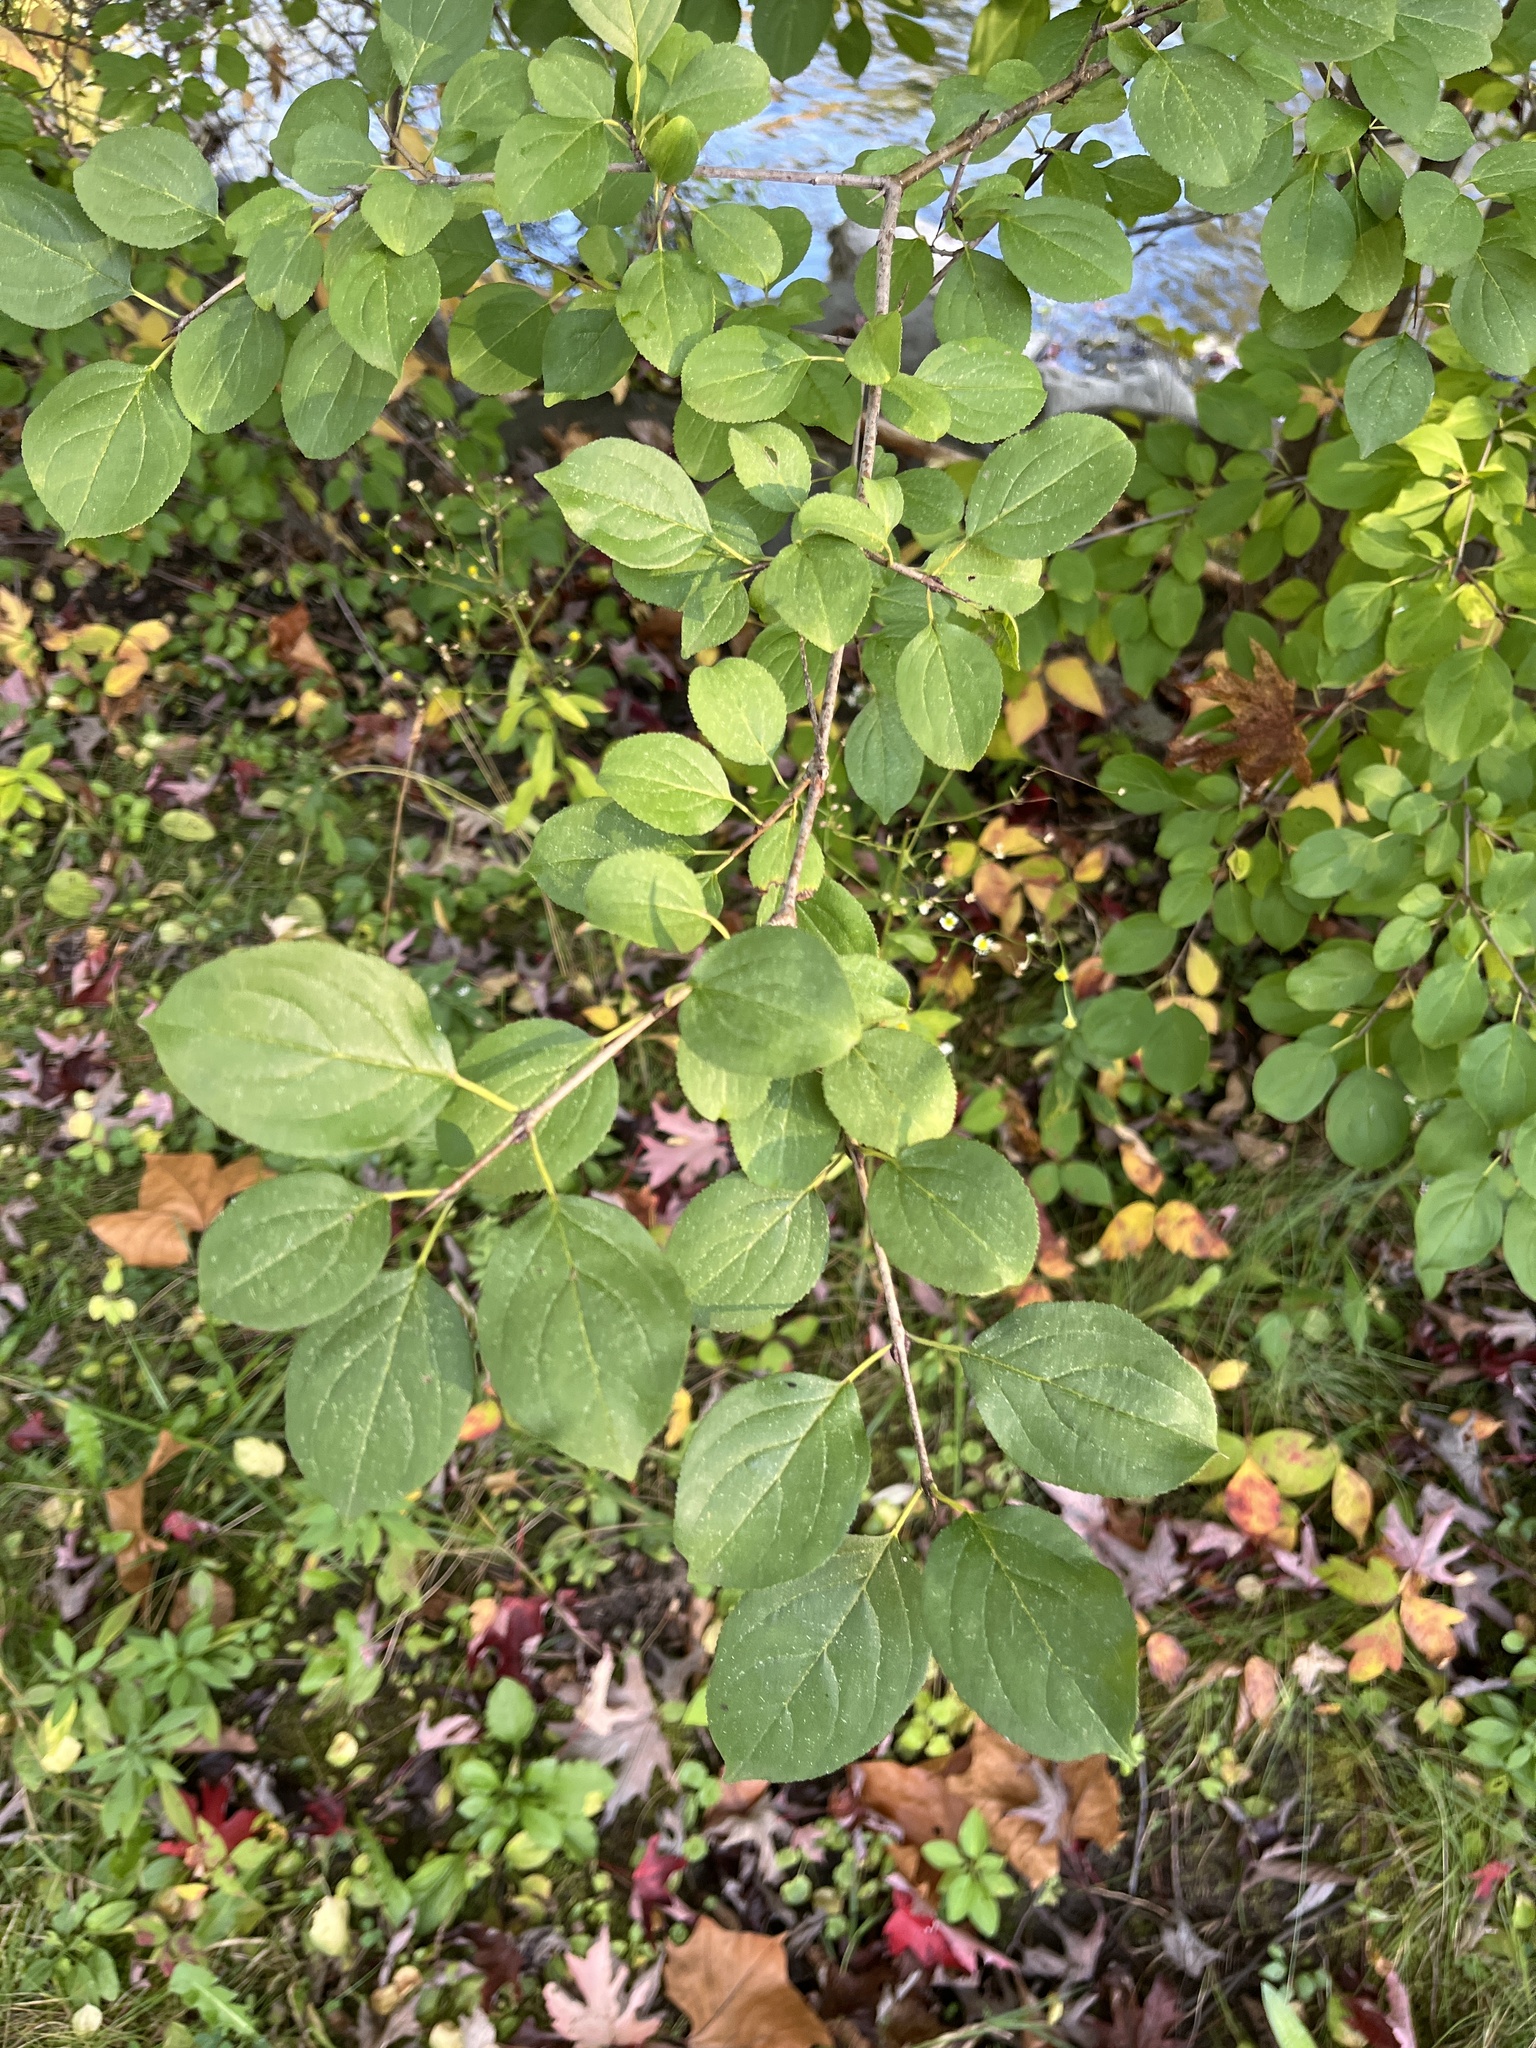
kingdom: Plantae
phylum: Tracheophyta
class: Magnoliopsida
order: Rosales
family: Rhamnaceae
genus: Rhamnus
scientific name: Rhamnus cathartica
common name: Common buckthorn
